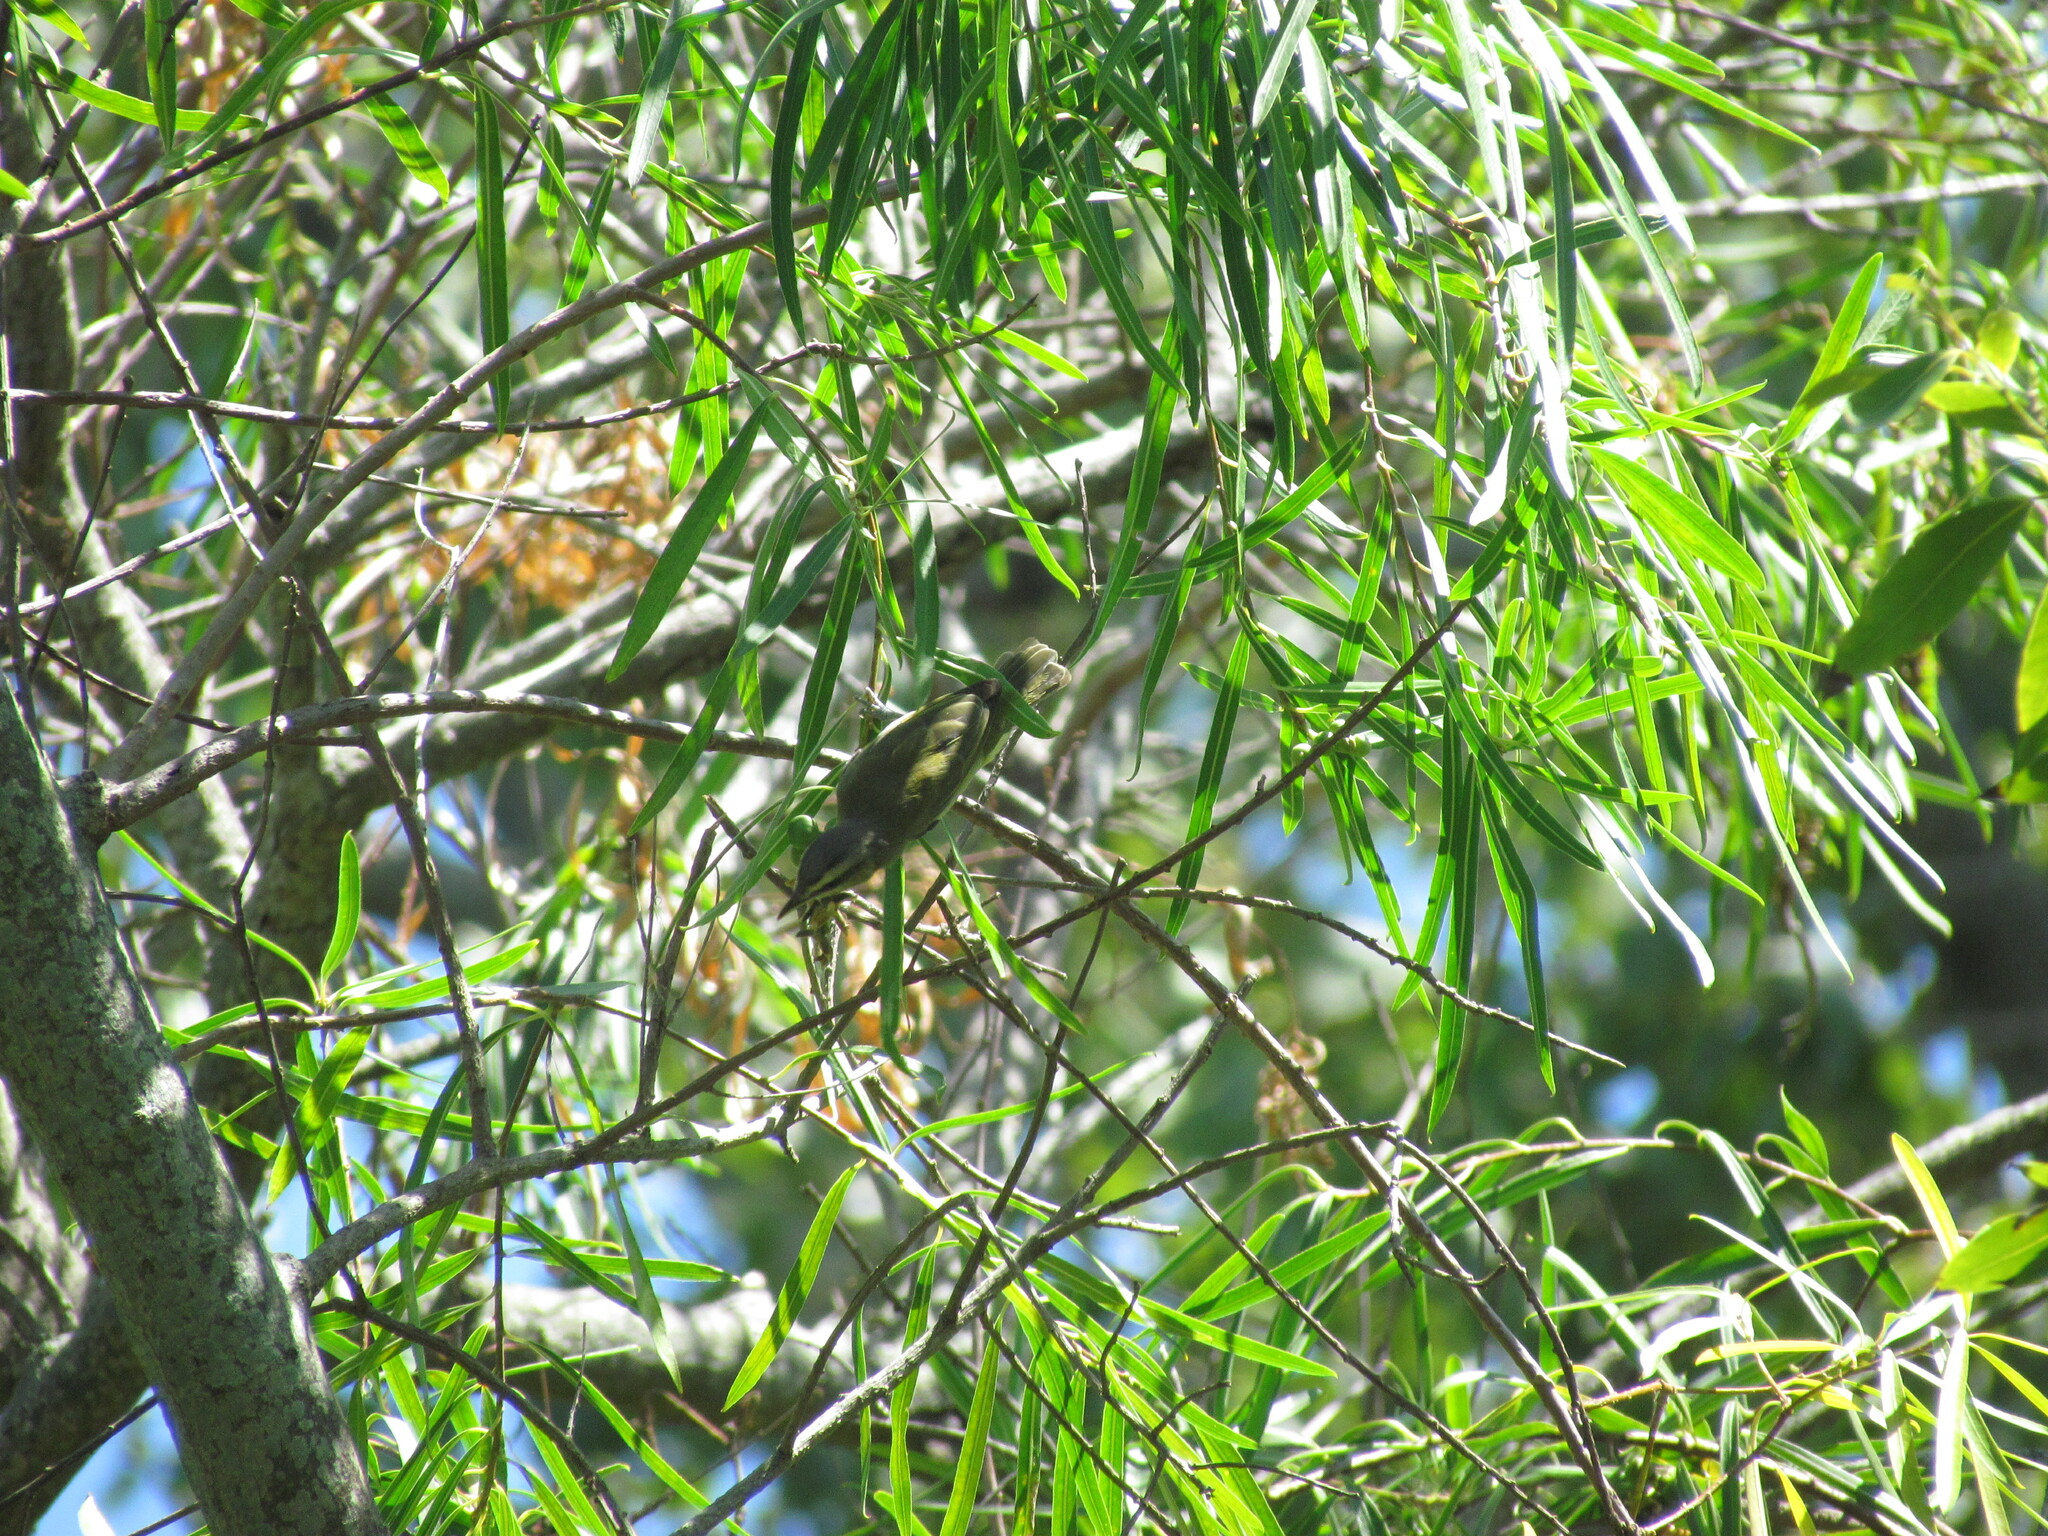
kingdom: Animalia
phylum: Chordata
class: Aves
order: Passeriformes
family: Vireonidae
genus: Vireo
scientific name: Vireo olivaceus
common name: Red-eyed vireo
